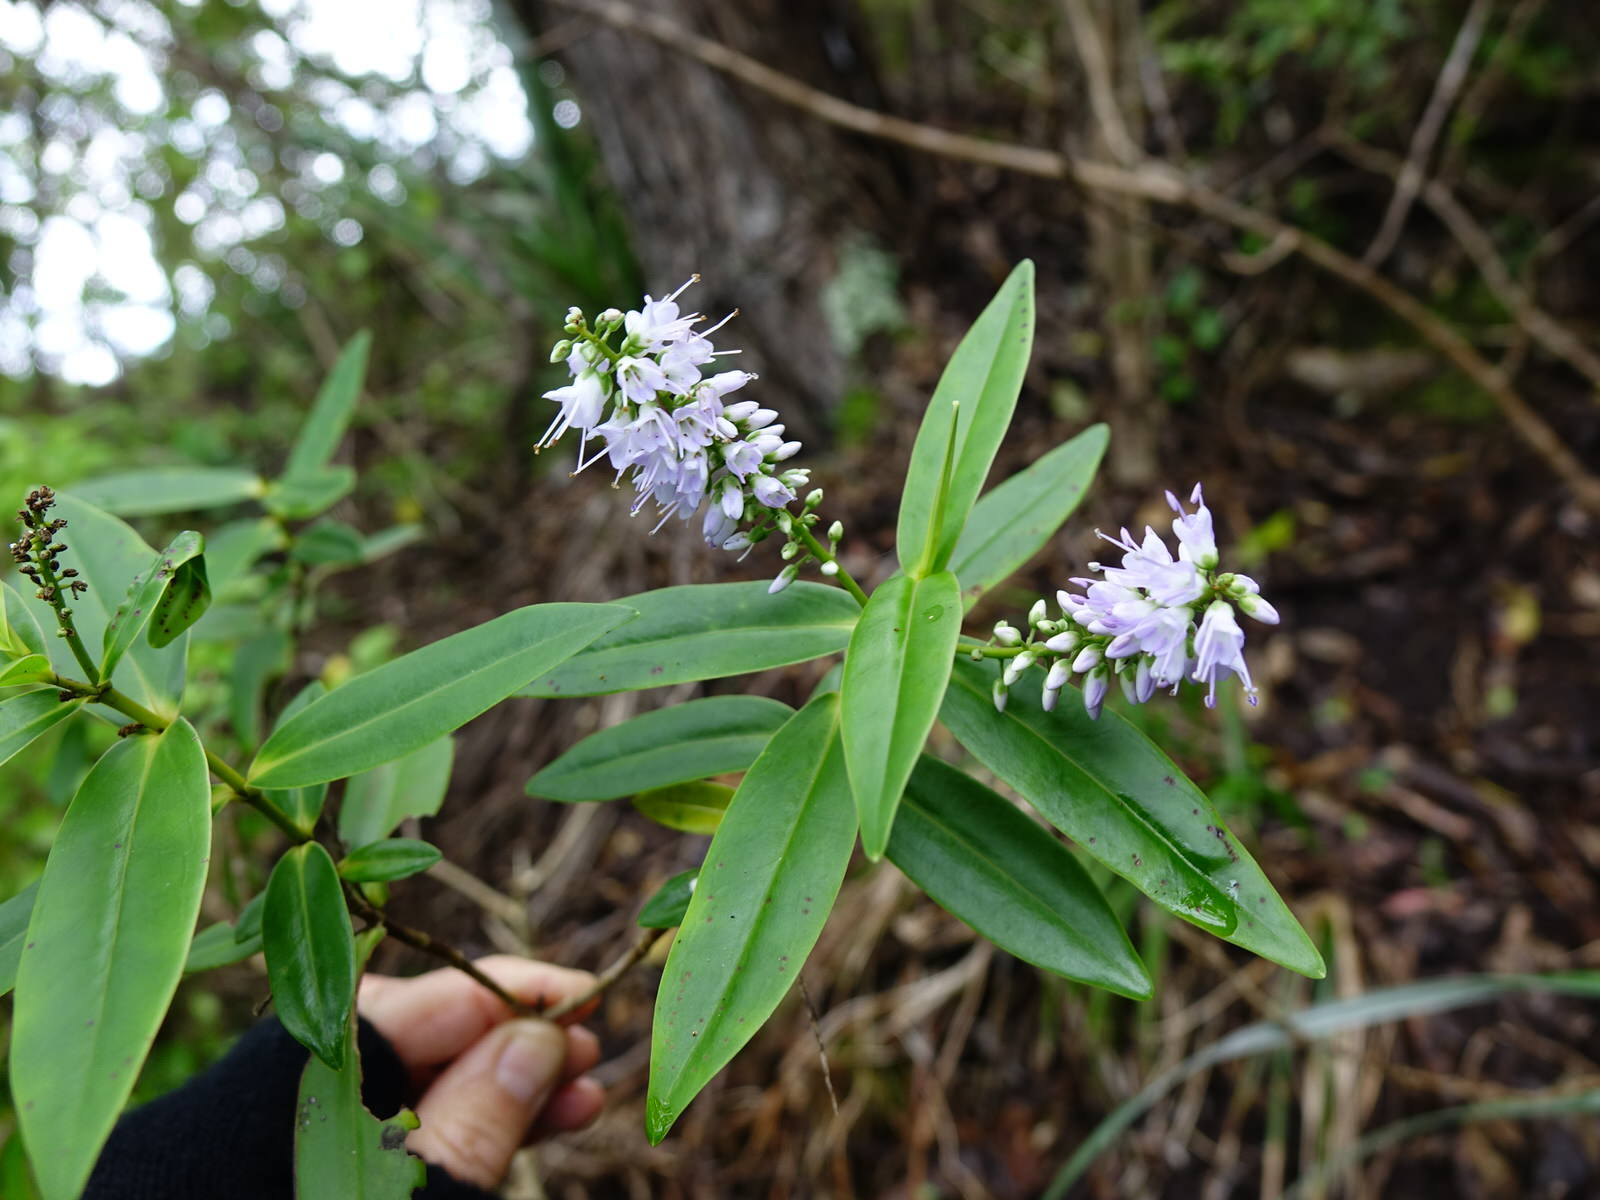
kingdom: Plantae
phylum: Tracheophyta
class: Magnoliopsida
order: Lamiales
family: Plantaginaceae
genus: Veronica
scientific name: Veronica macrocarpa
